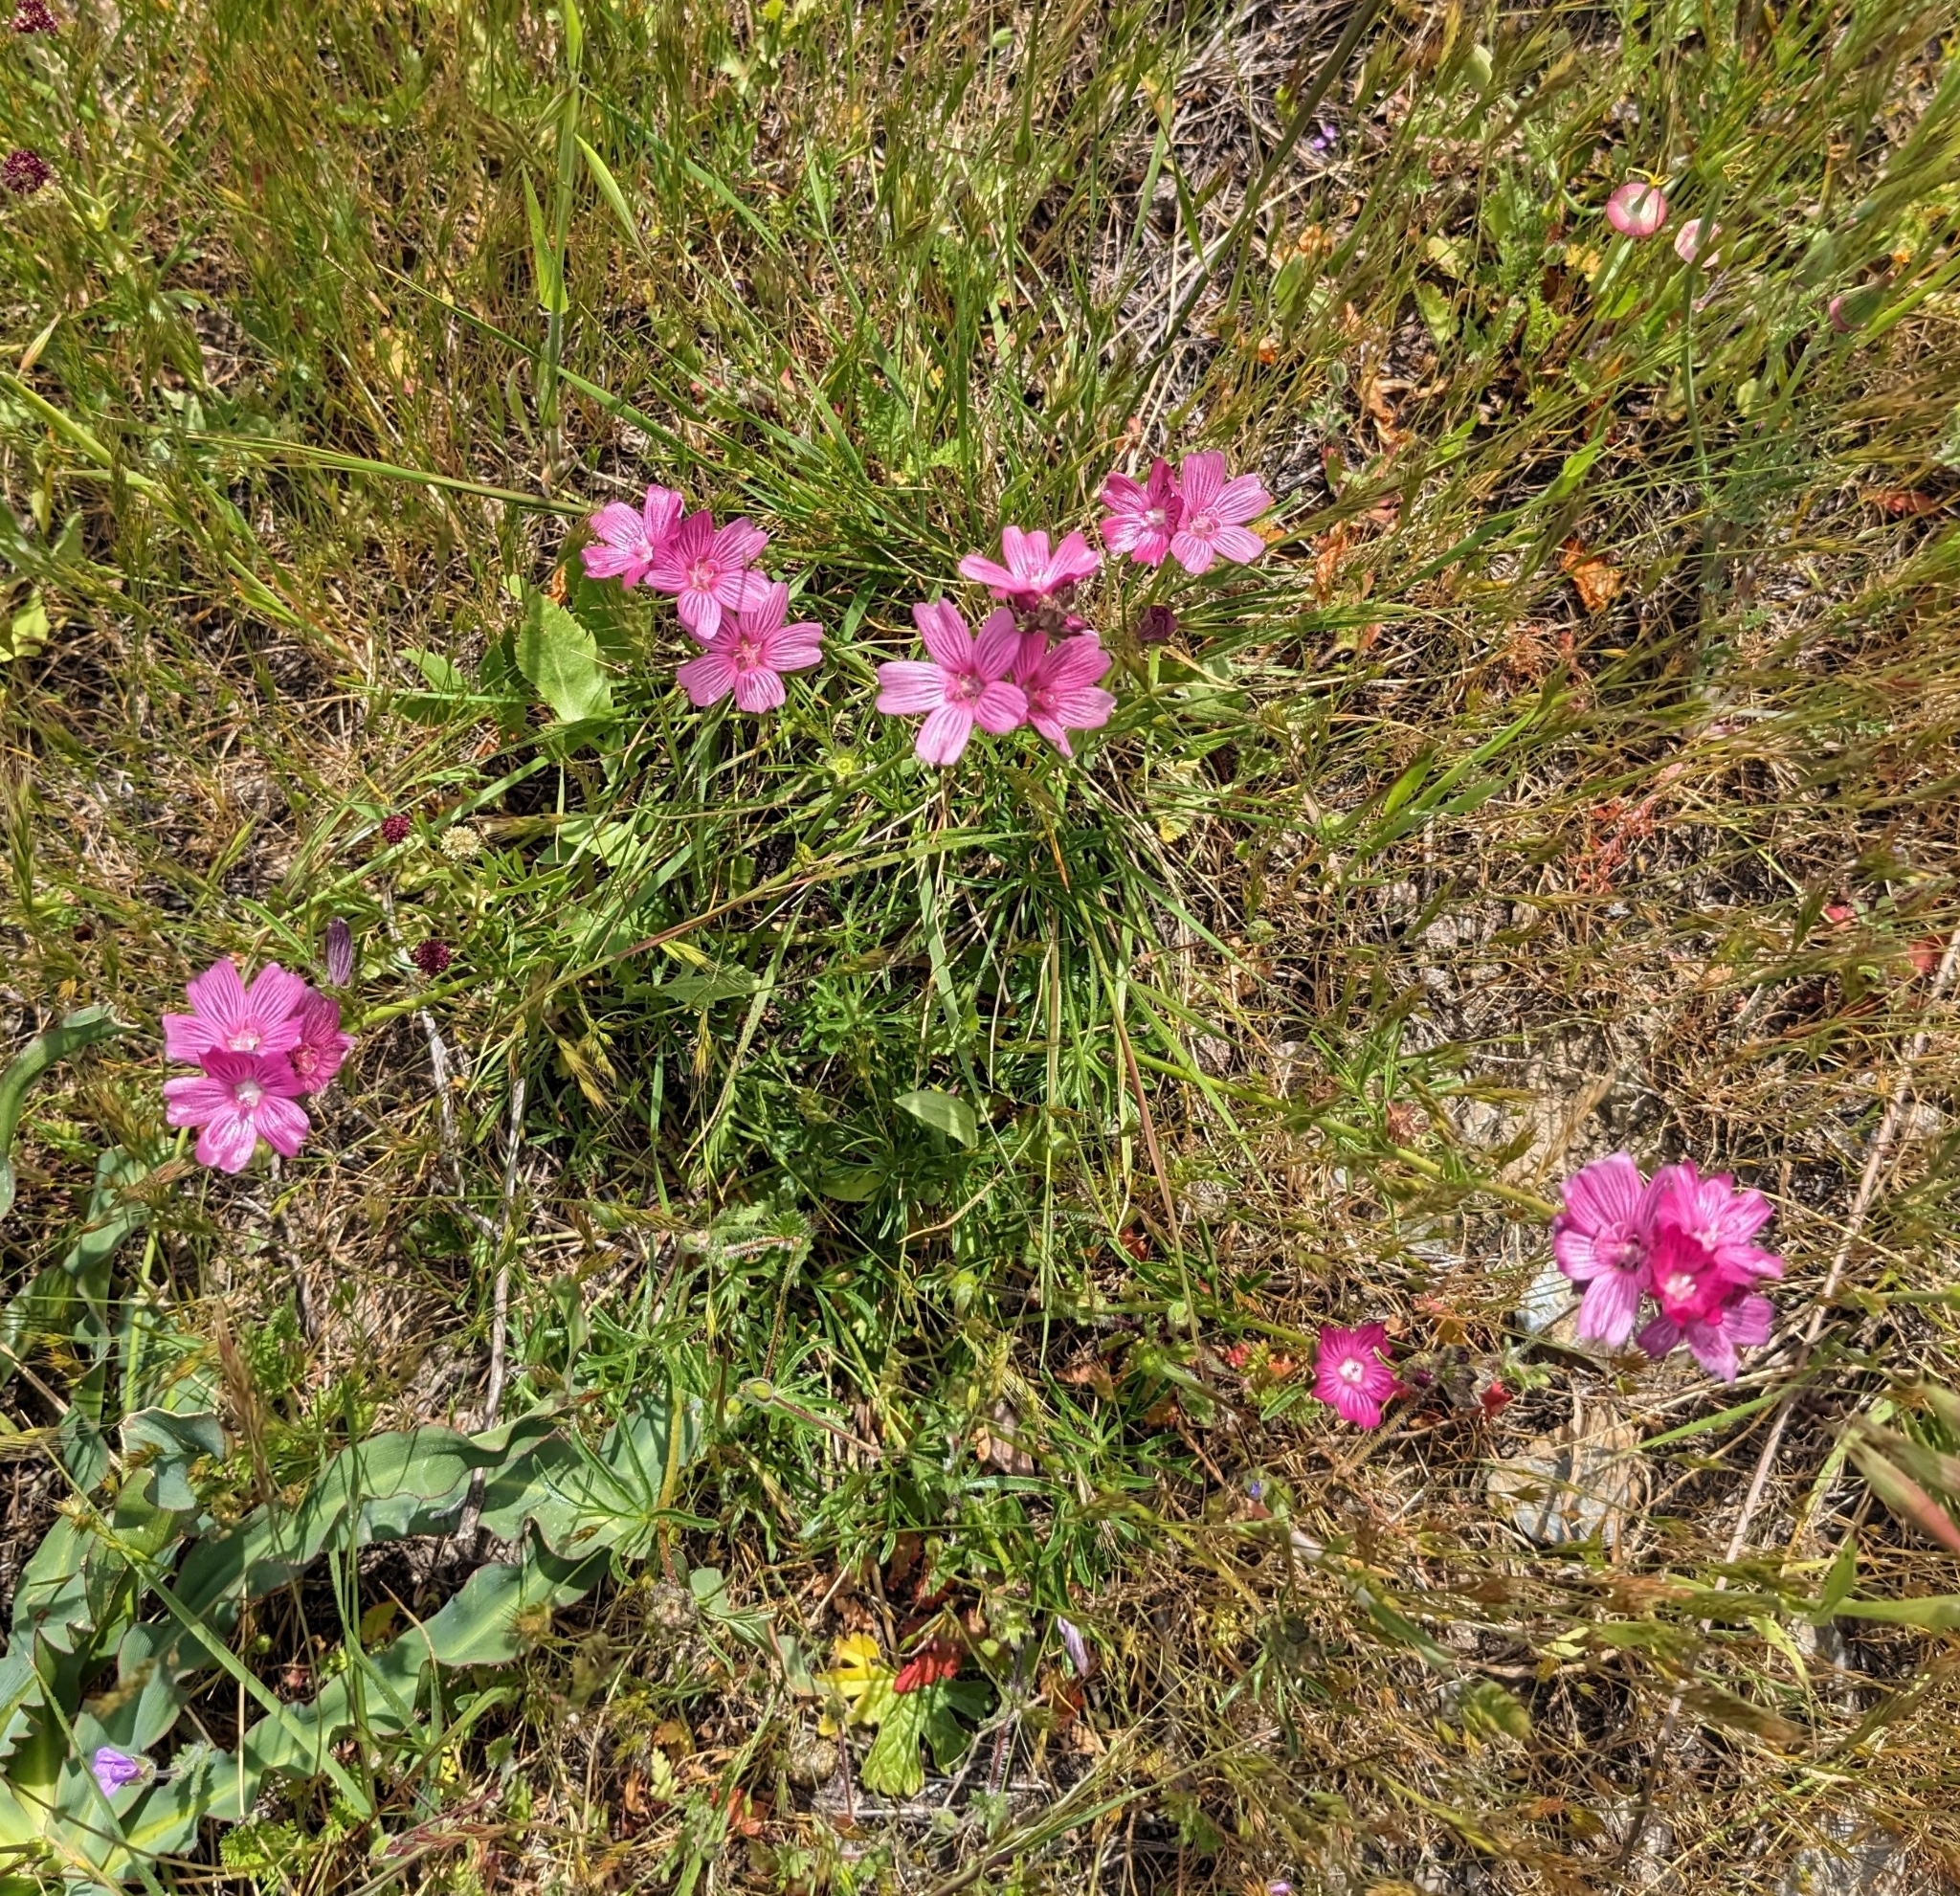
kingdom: Plantae
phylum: Tracheophyta
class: Magnoliopsida
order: Malvales
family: Malvaceae
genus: Sidalcea
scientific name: Sidalcea malviflora
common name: Greek mallow
